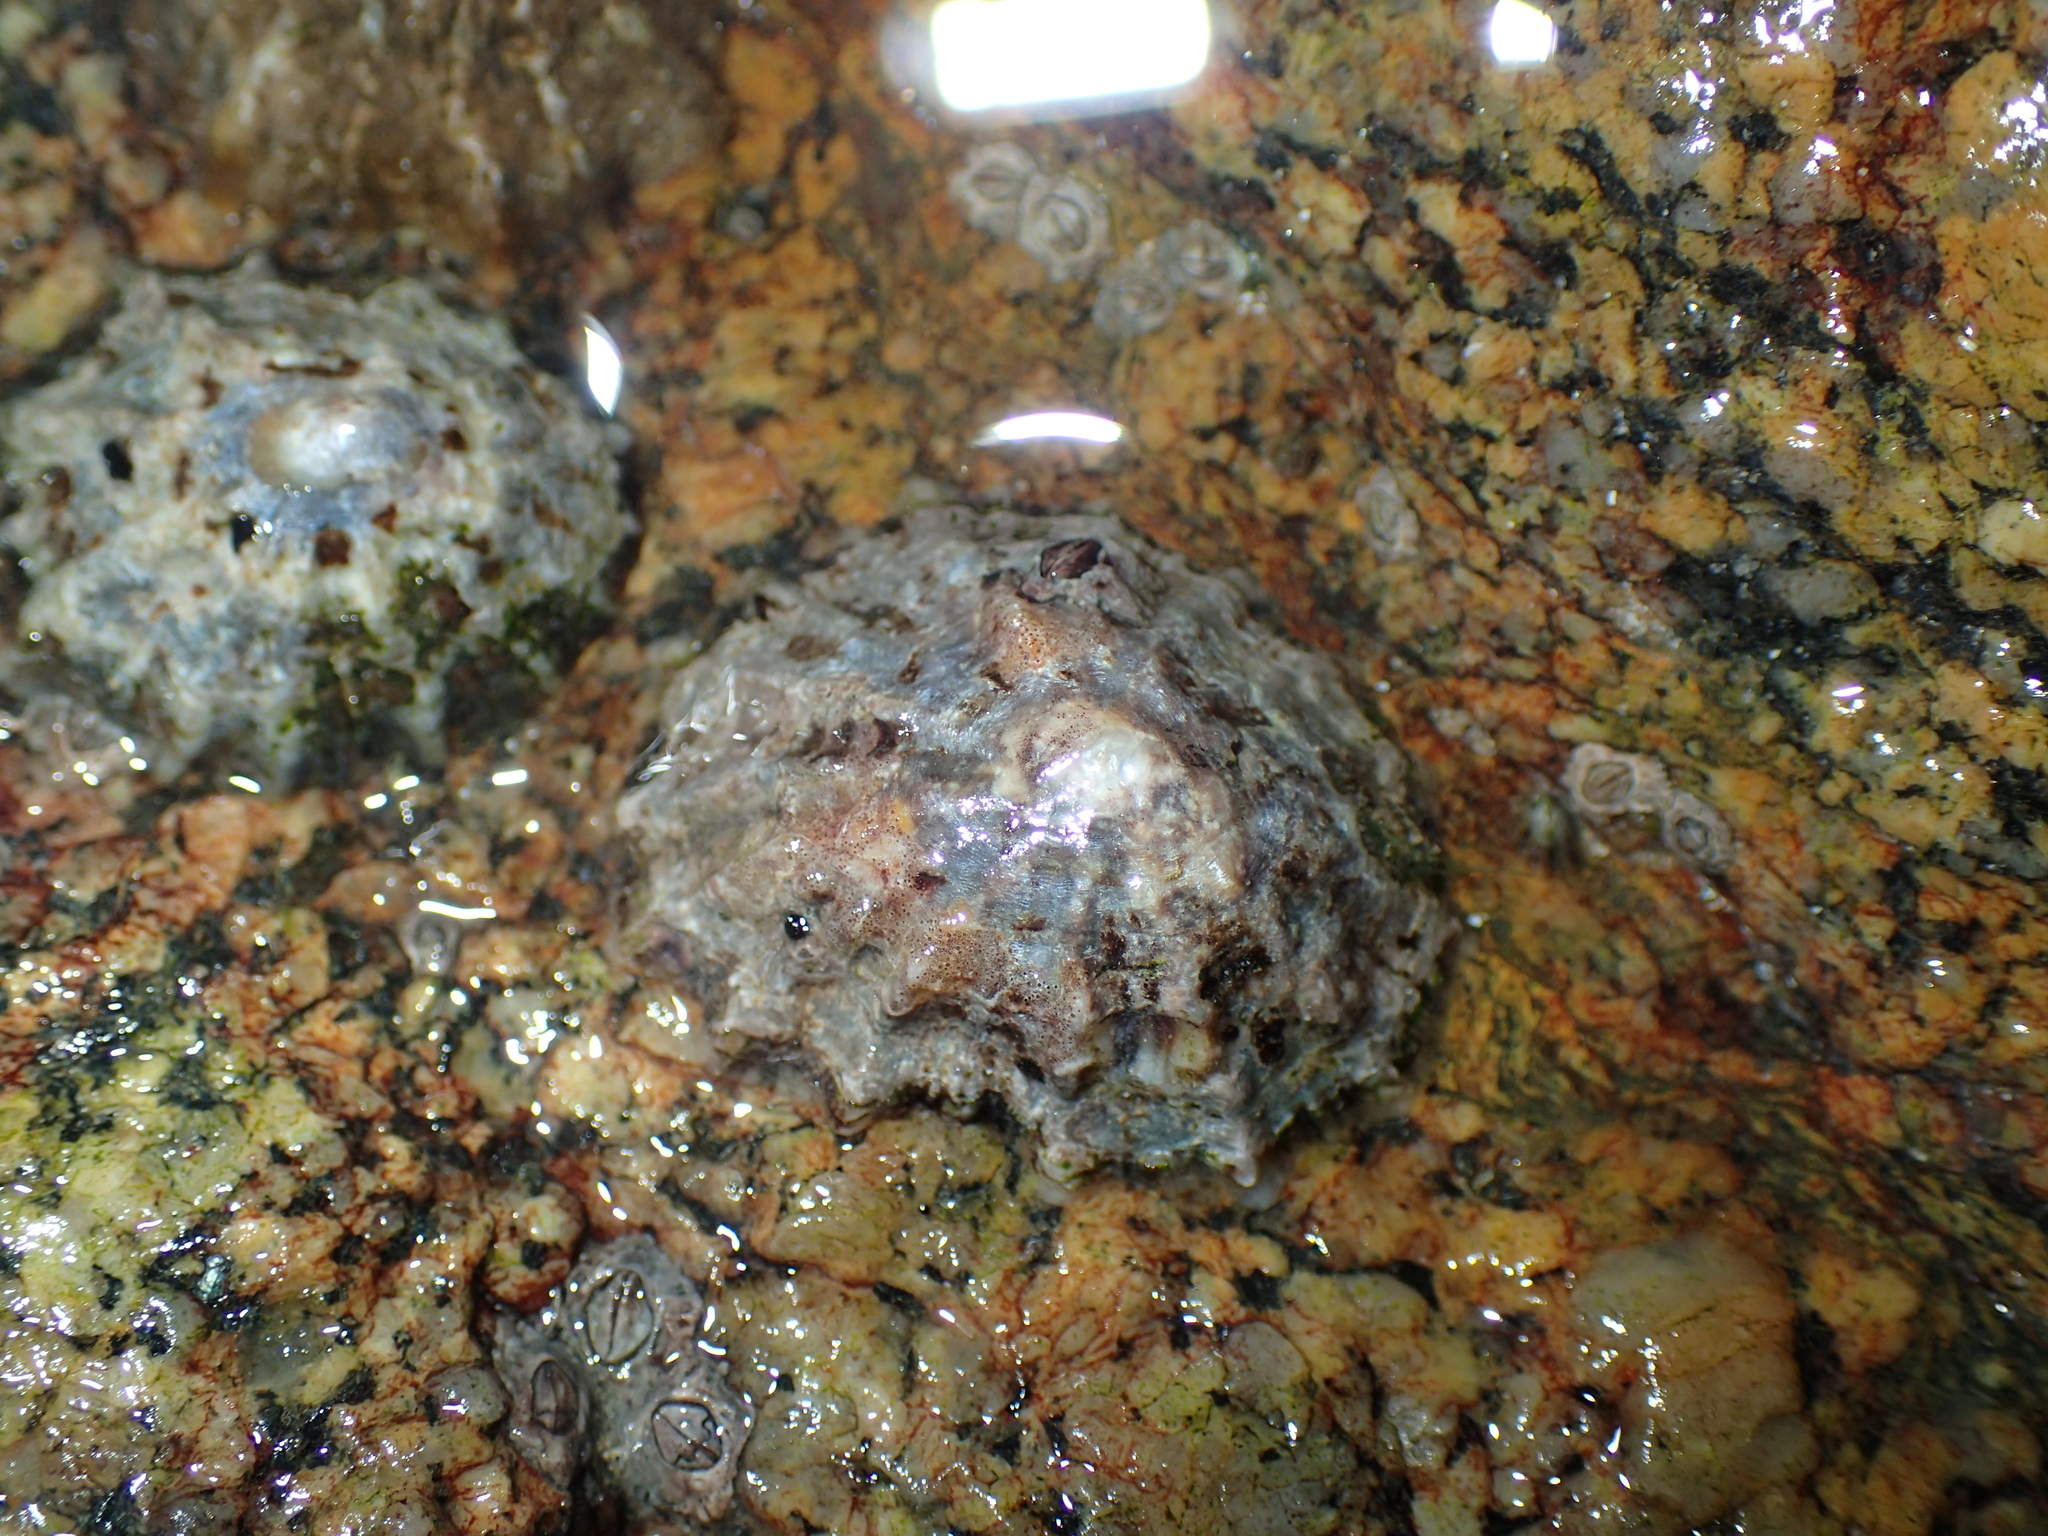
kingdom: Animalia
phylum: Mollusca
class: Gastropoda
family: Patellidae
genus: Patella
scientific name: Patella vulgata
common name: Common limpet
